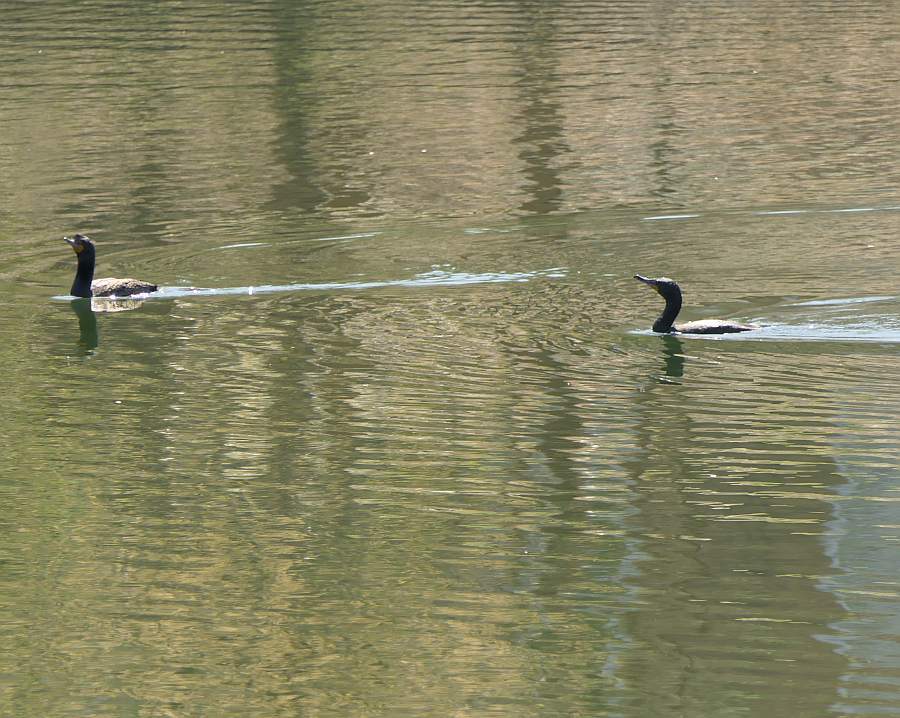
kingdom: Animalia
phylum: Chordata
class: Aves
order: Suliformes
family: Phalacrocoracidae
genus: Phalacrocorax
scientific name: Phalacrocorax auritus
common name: Double-crested cormorant
